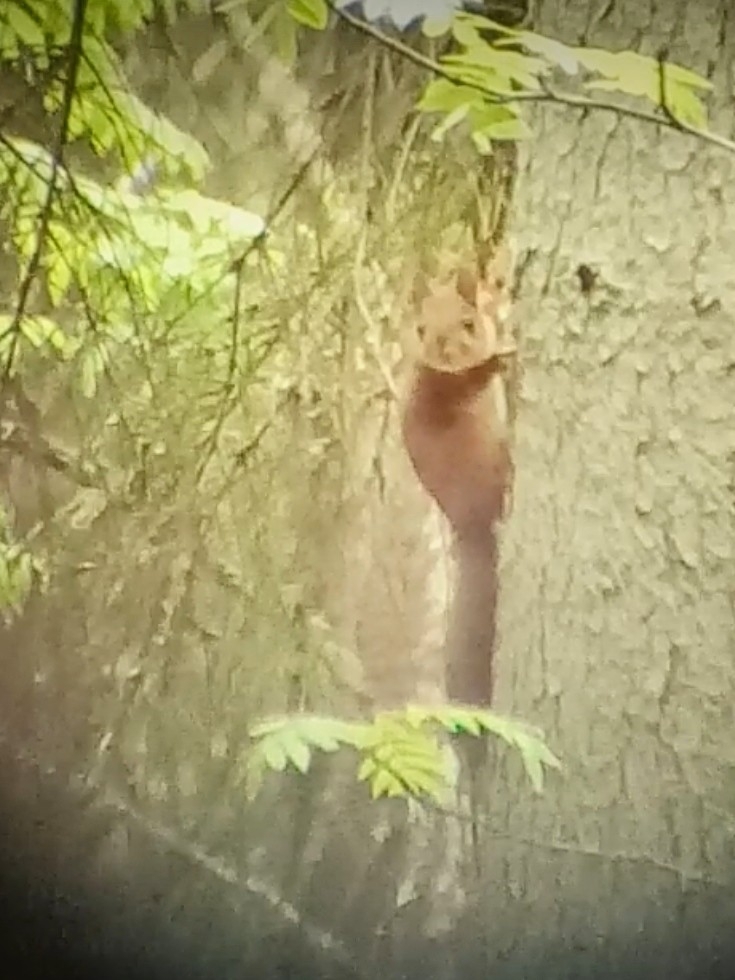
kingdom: Animalia
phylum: Chordata
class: Mammalia
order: Rodentia
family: Sciuridae
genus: Sciurus
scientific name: Sciurus vulgaris
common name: Eurasian red squirrel
